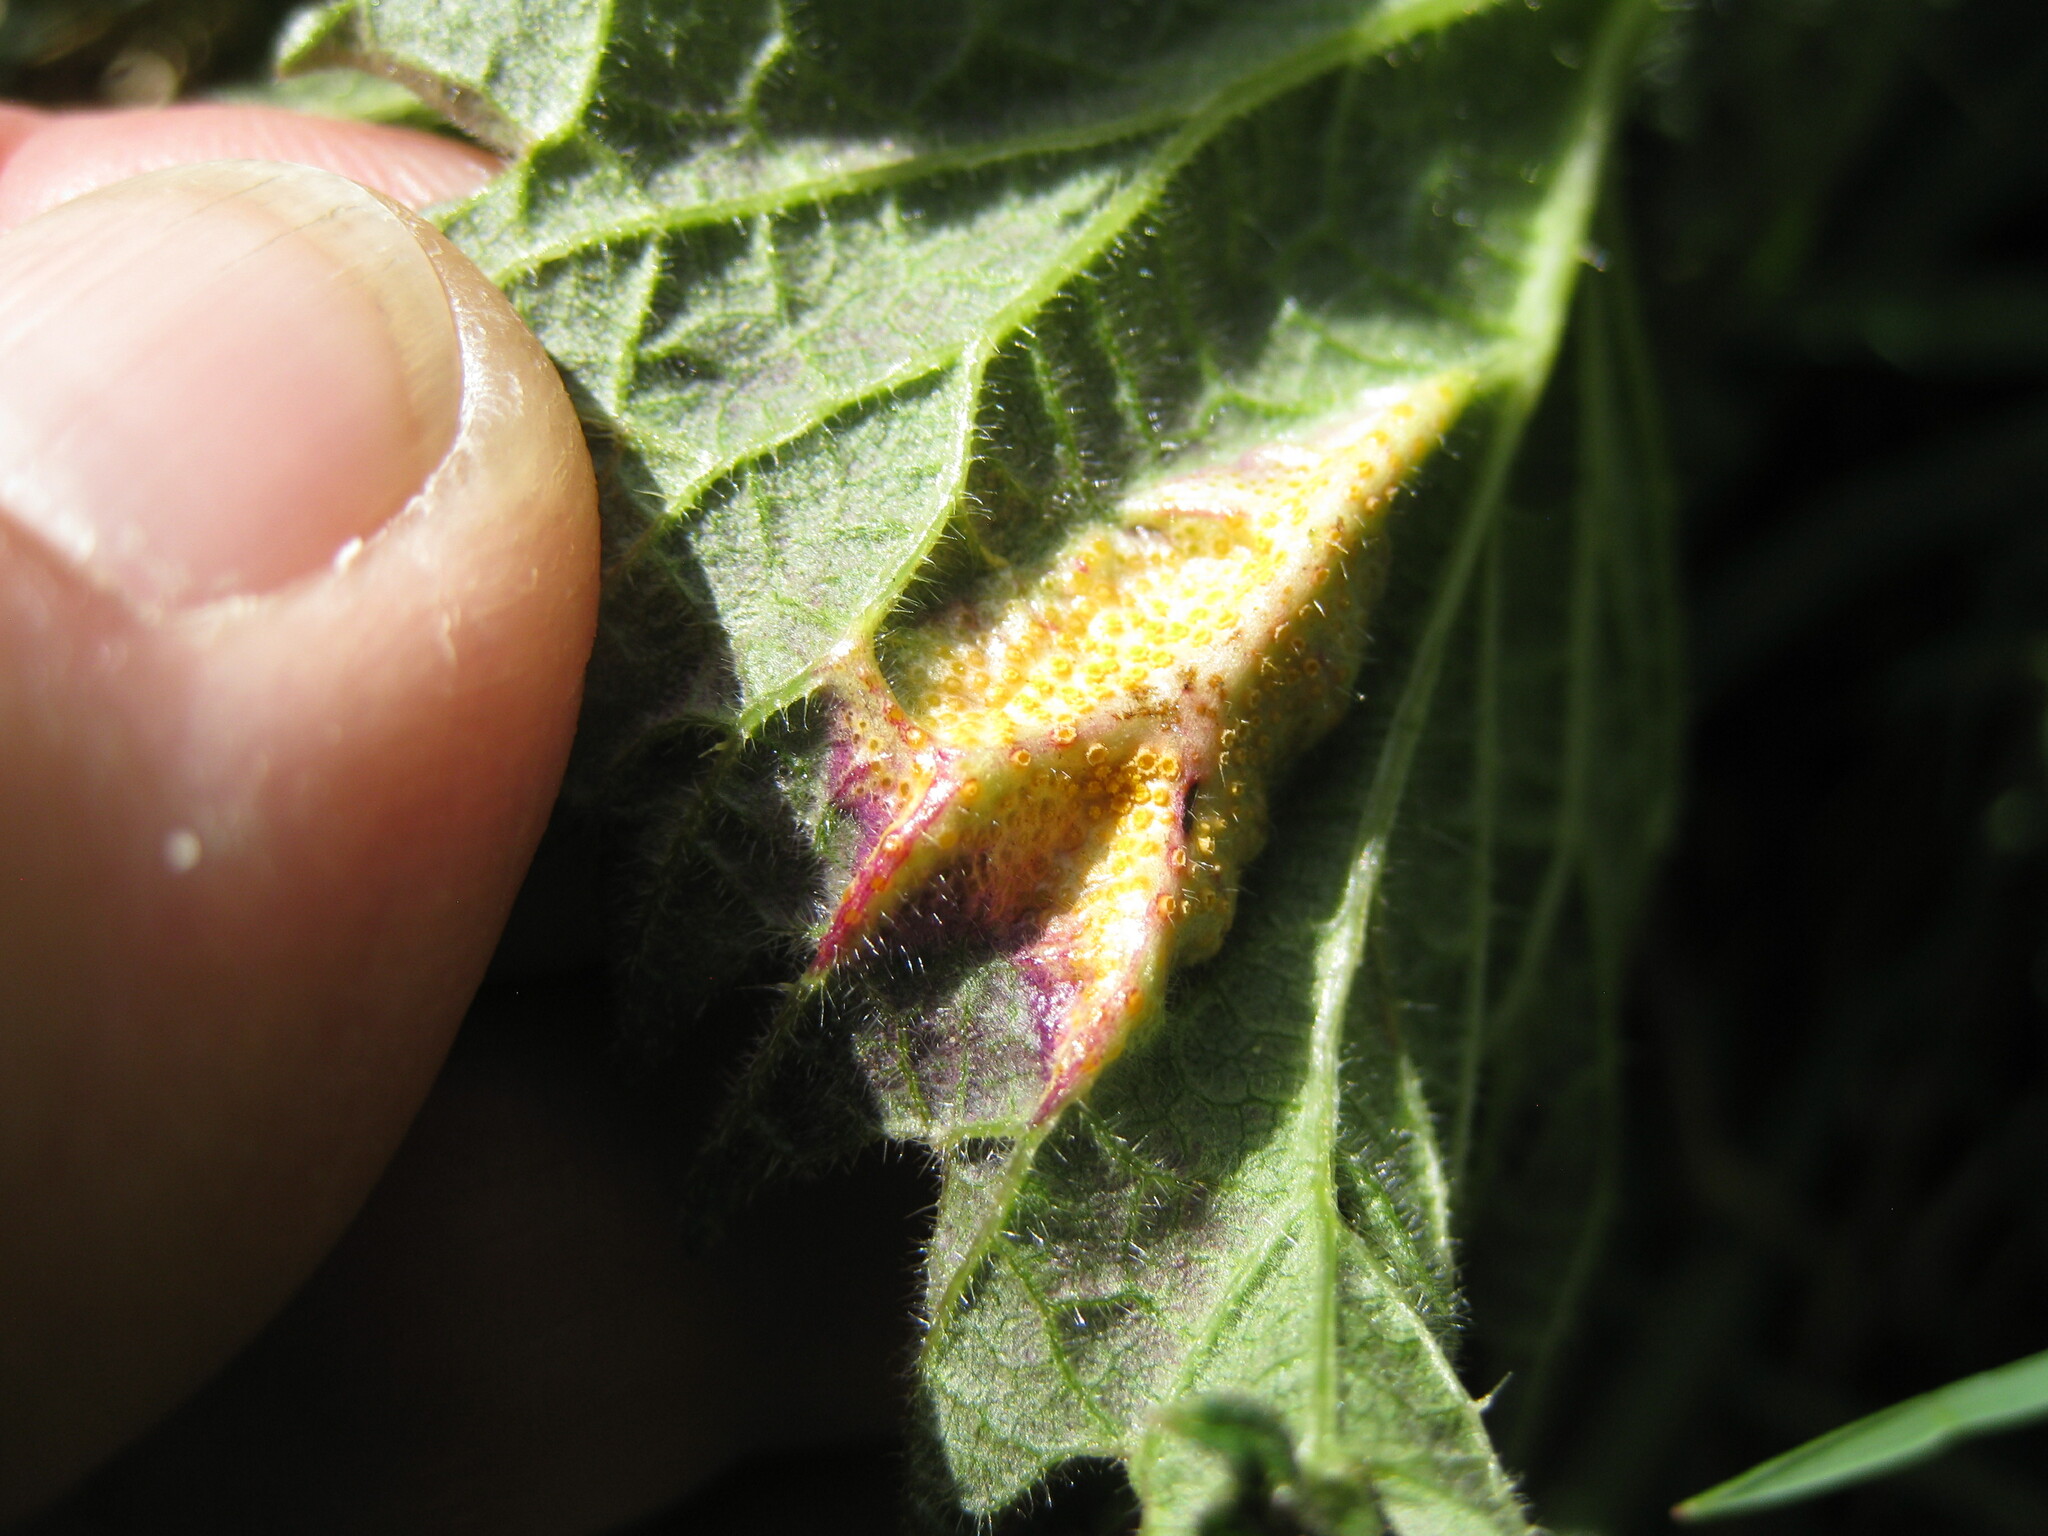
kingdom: Fungi
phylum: Basidiomycota
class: Pucciniomycetes
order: Pucciniales
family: Pucciniaceae
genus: Puccinia
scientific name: Puccinia urticata
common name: Nettle clustercup rust fungus
